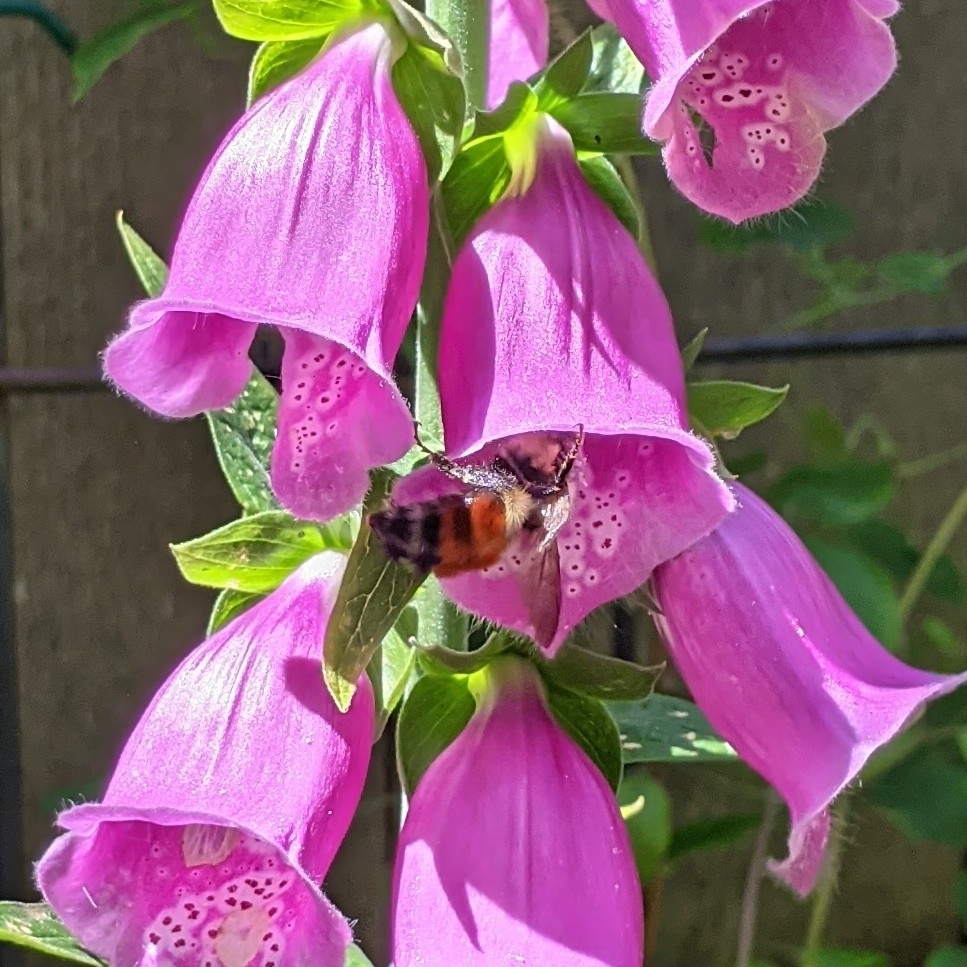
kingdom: Animalia
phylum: Arthropoda
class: Insecta
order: Hymenoptera
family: Apidae
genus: Bombus
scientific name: Bombus melanopygus
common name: Black tail bumble bee
